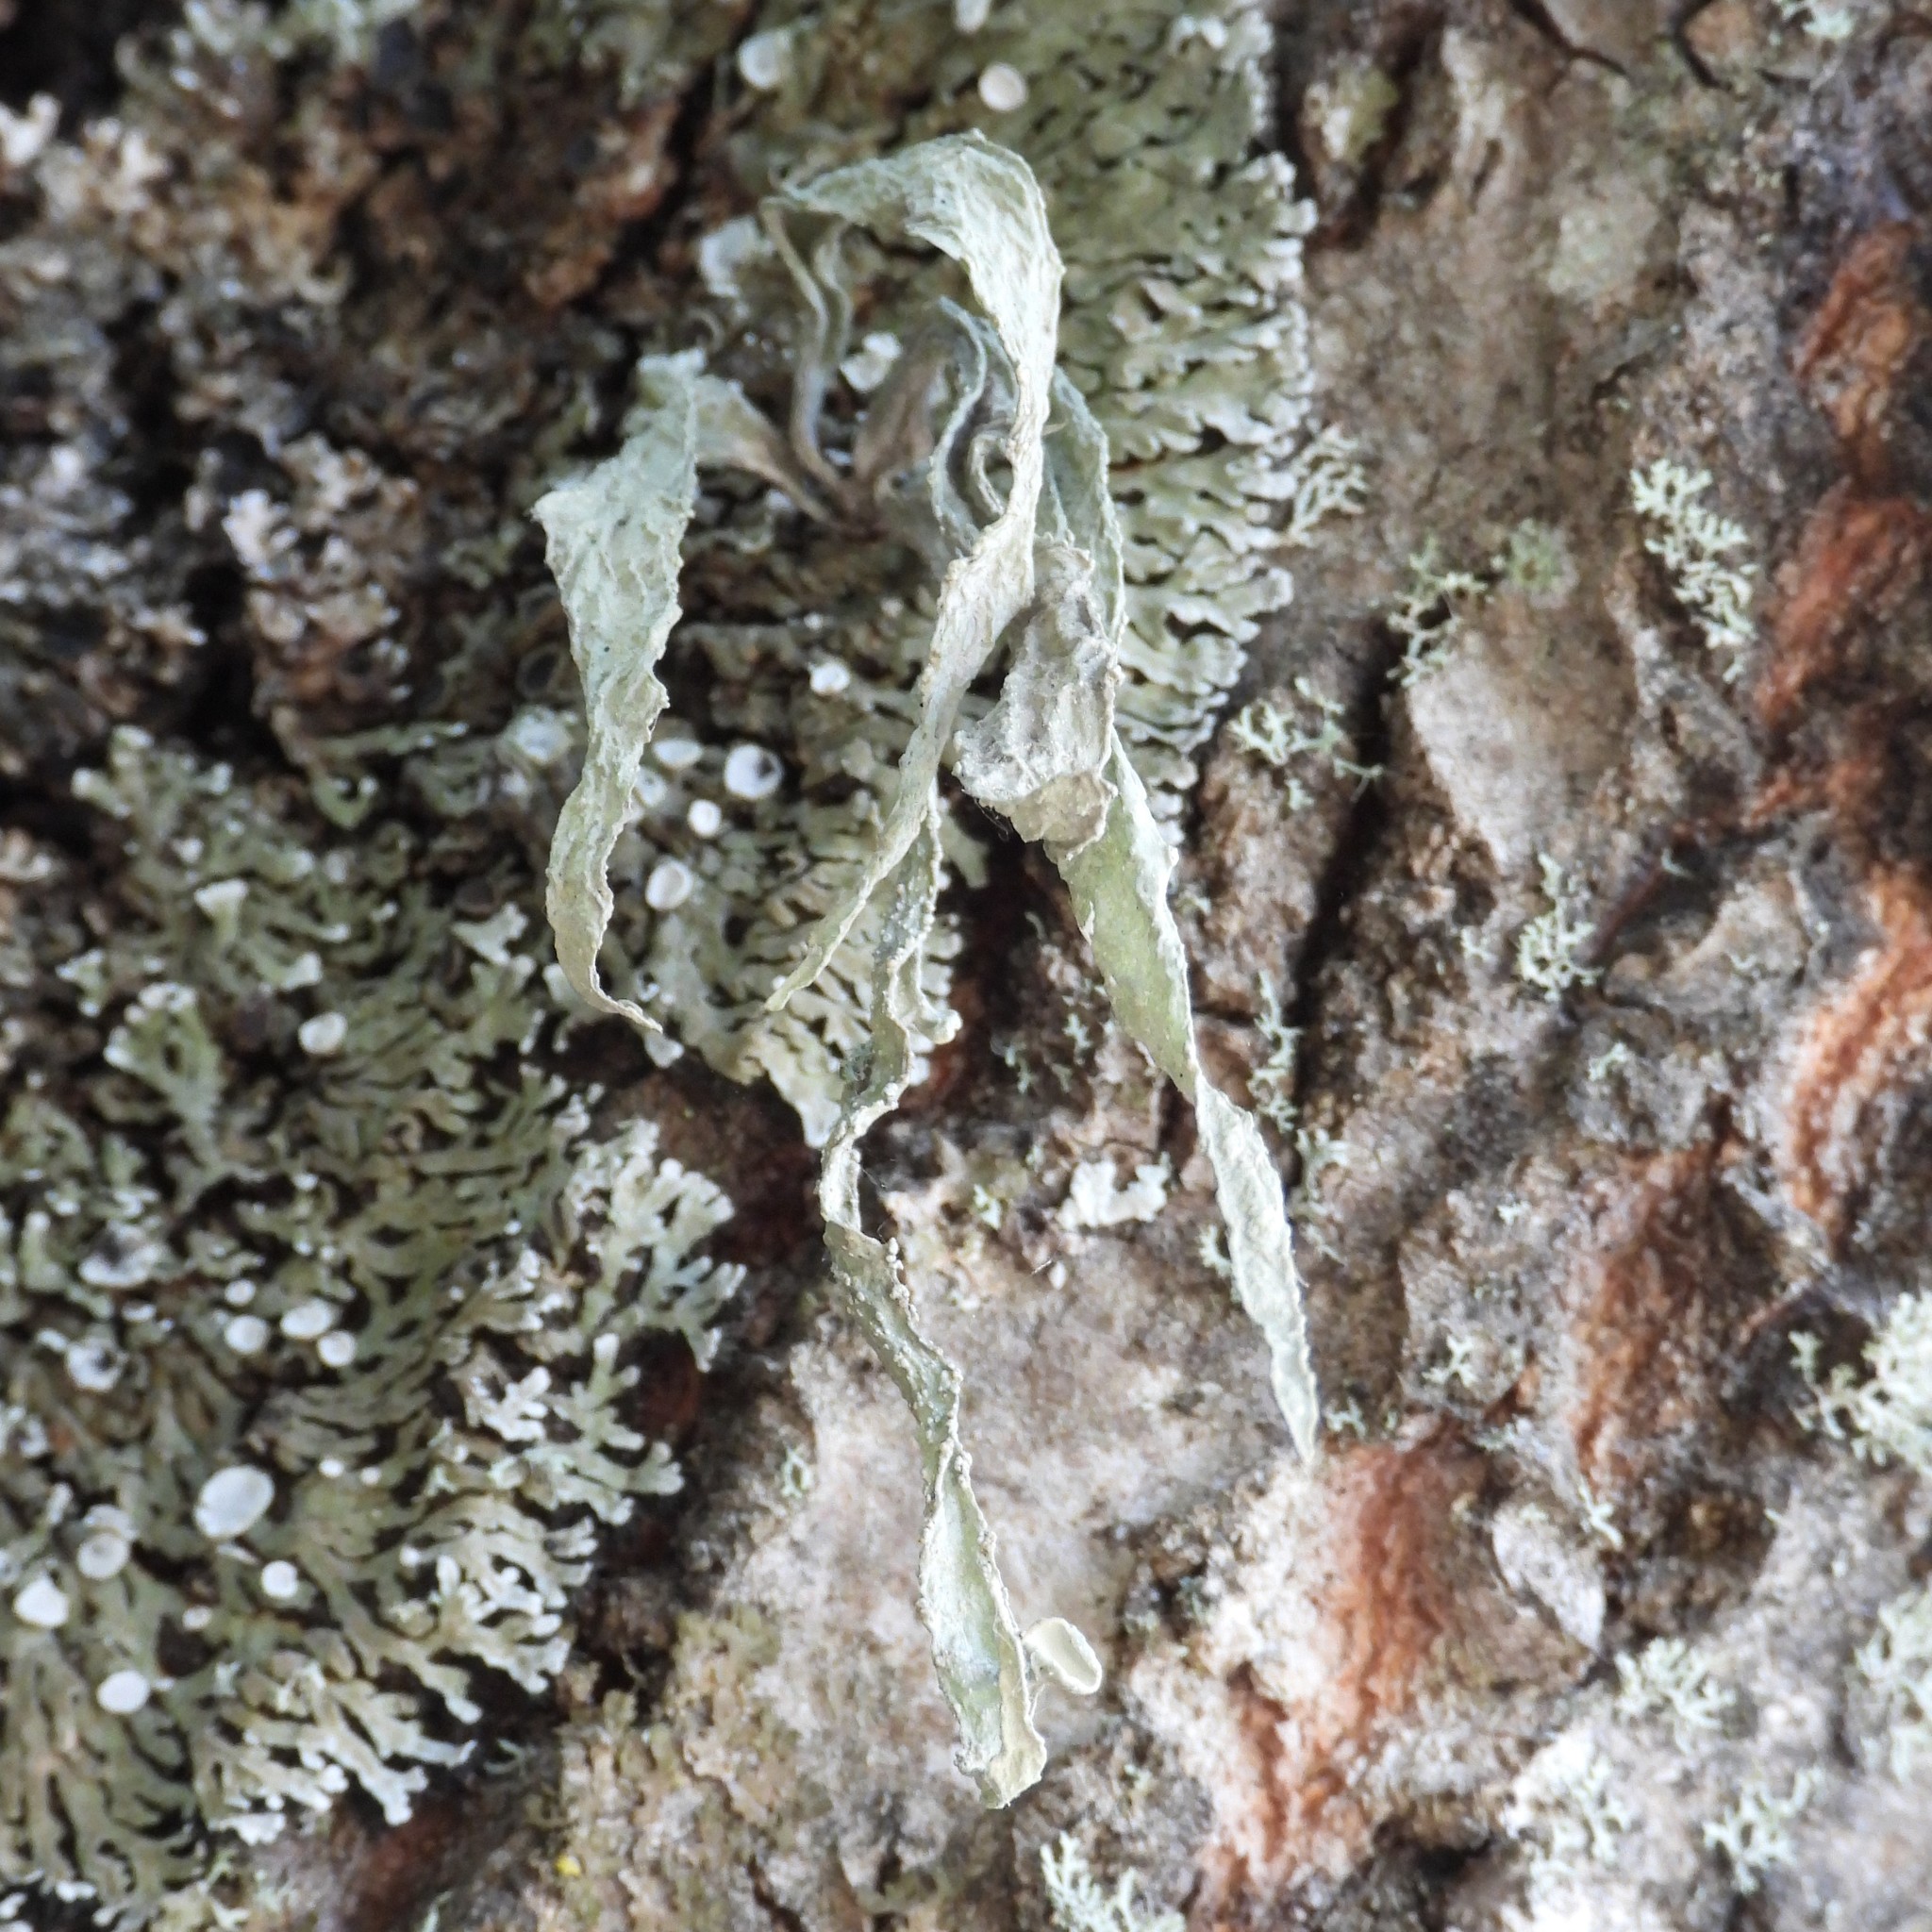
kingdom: Fungi
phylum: Ascomycota
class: Lecanoromycetes
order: Lecanorales
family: Ramalinaceae
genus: Ramalina
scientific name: Ramalina fraxinea
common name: Cartilage lichen
